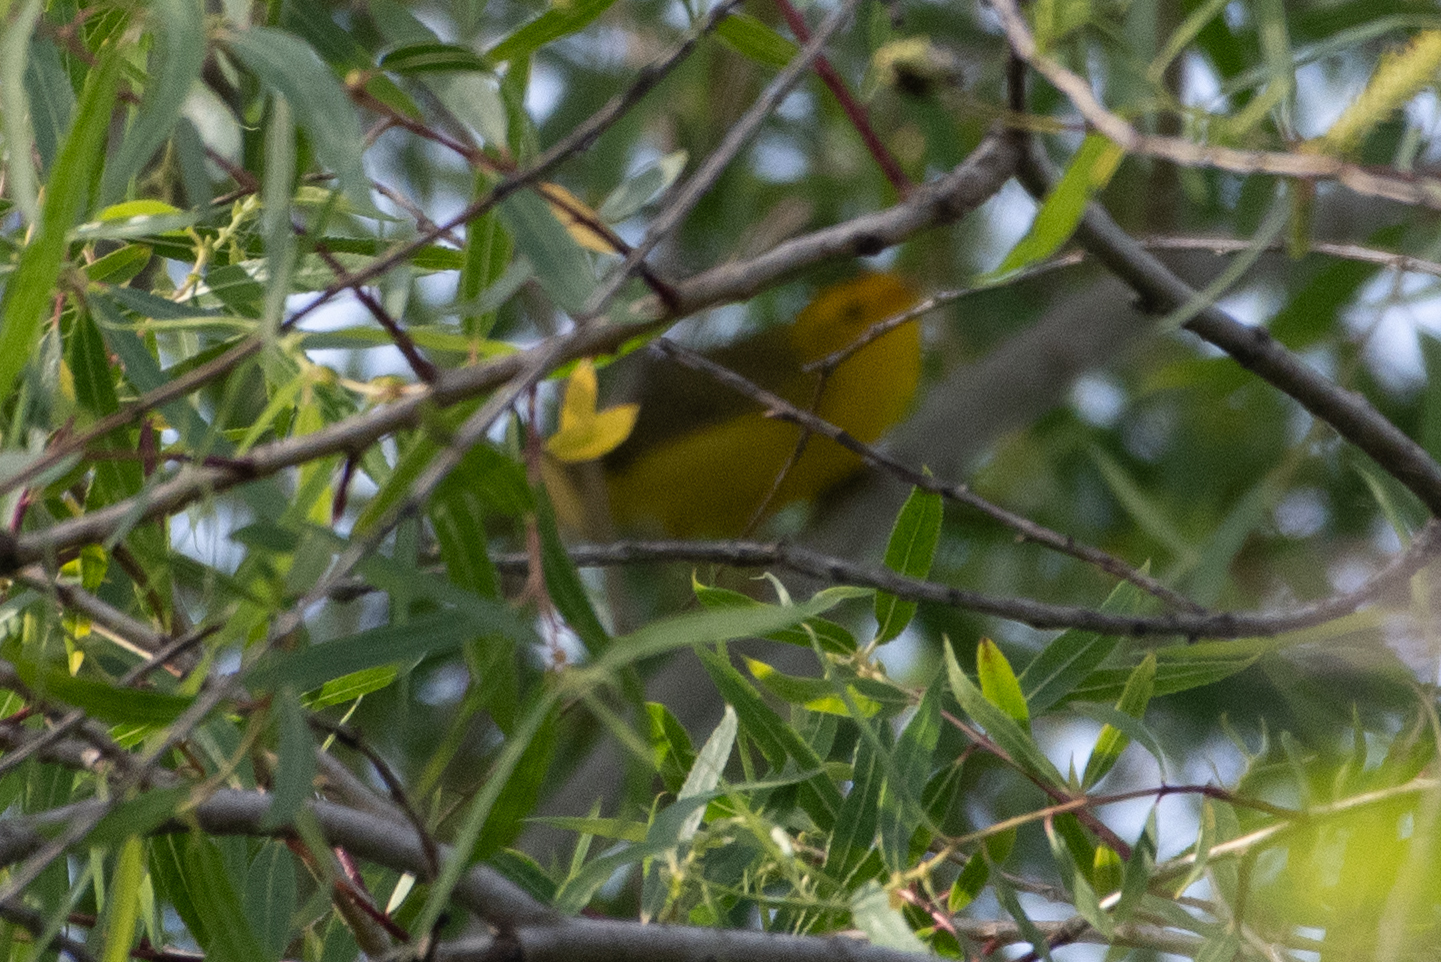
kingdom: Animalia
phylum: Chordata
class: Aves
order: Passeriformes
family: Parulidae
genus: Cardellina
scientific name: Cardellina pusilla
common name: Wilson's warbler
